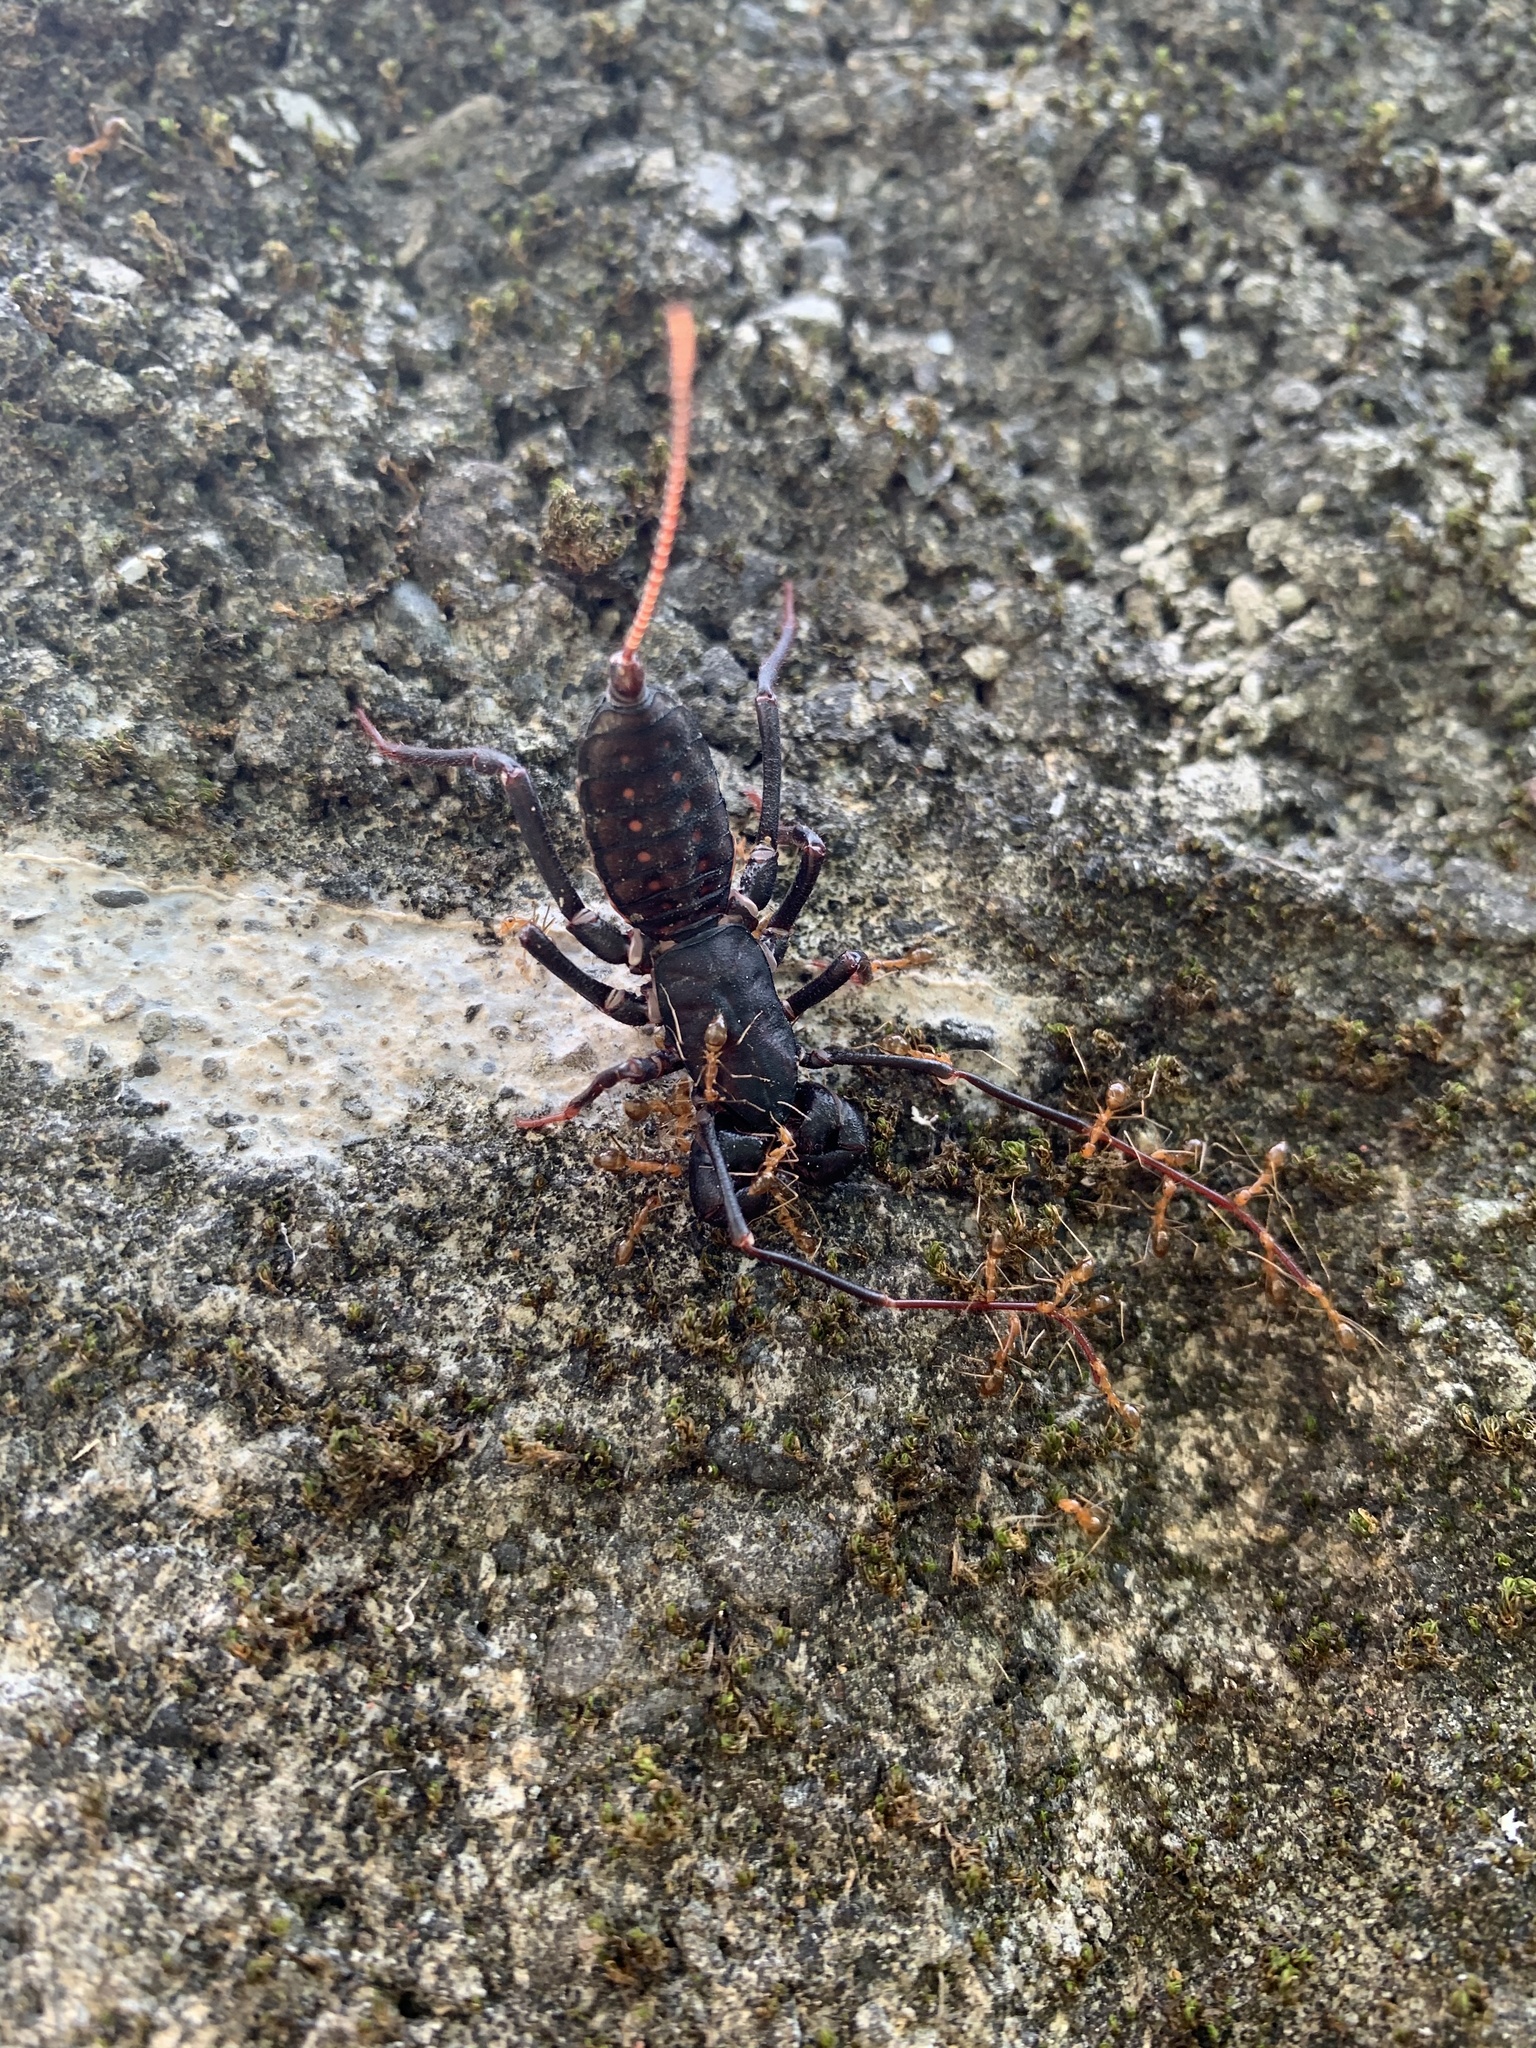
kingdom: Animalia
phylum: Arthropoda
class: Arachnida
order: Uropygi
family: Thelyphonidae
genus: Typopeltis
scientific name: Typopeltis crucifer
